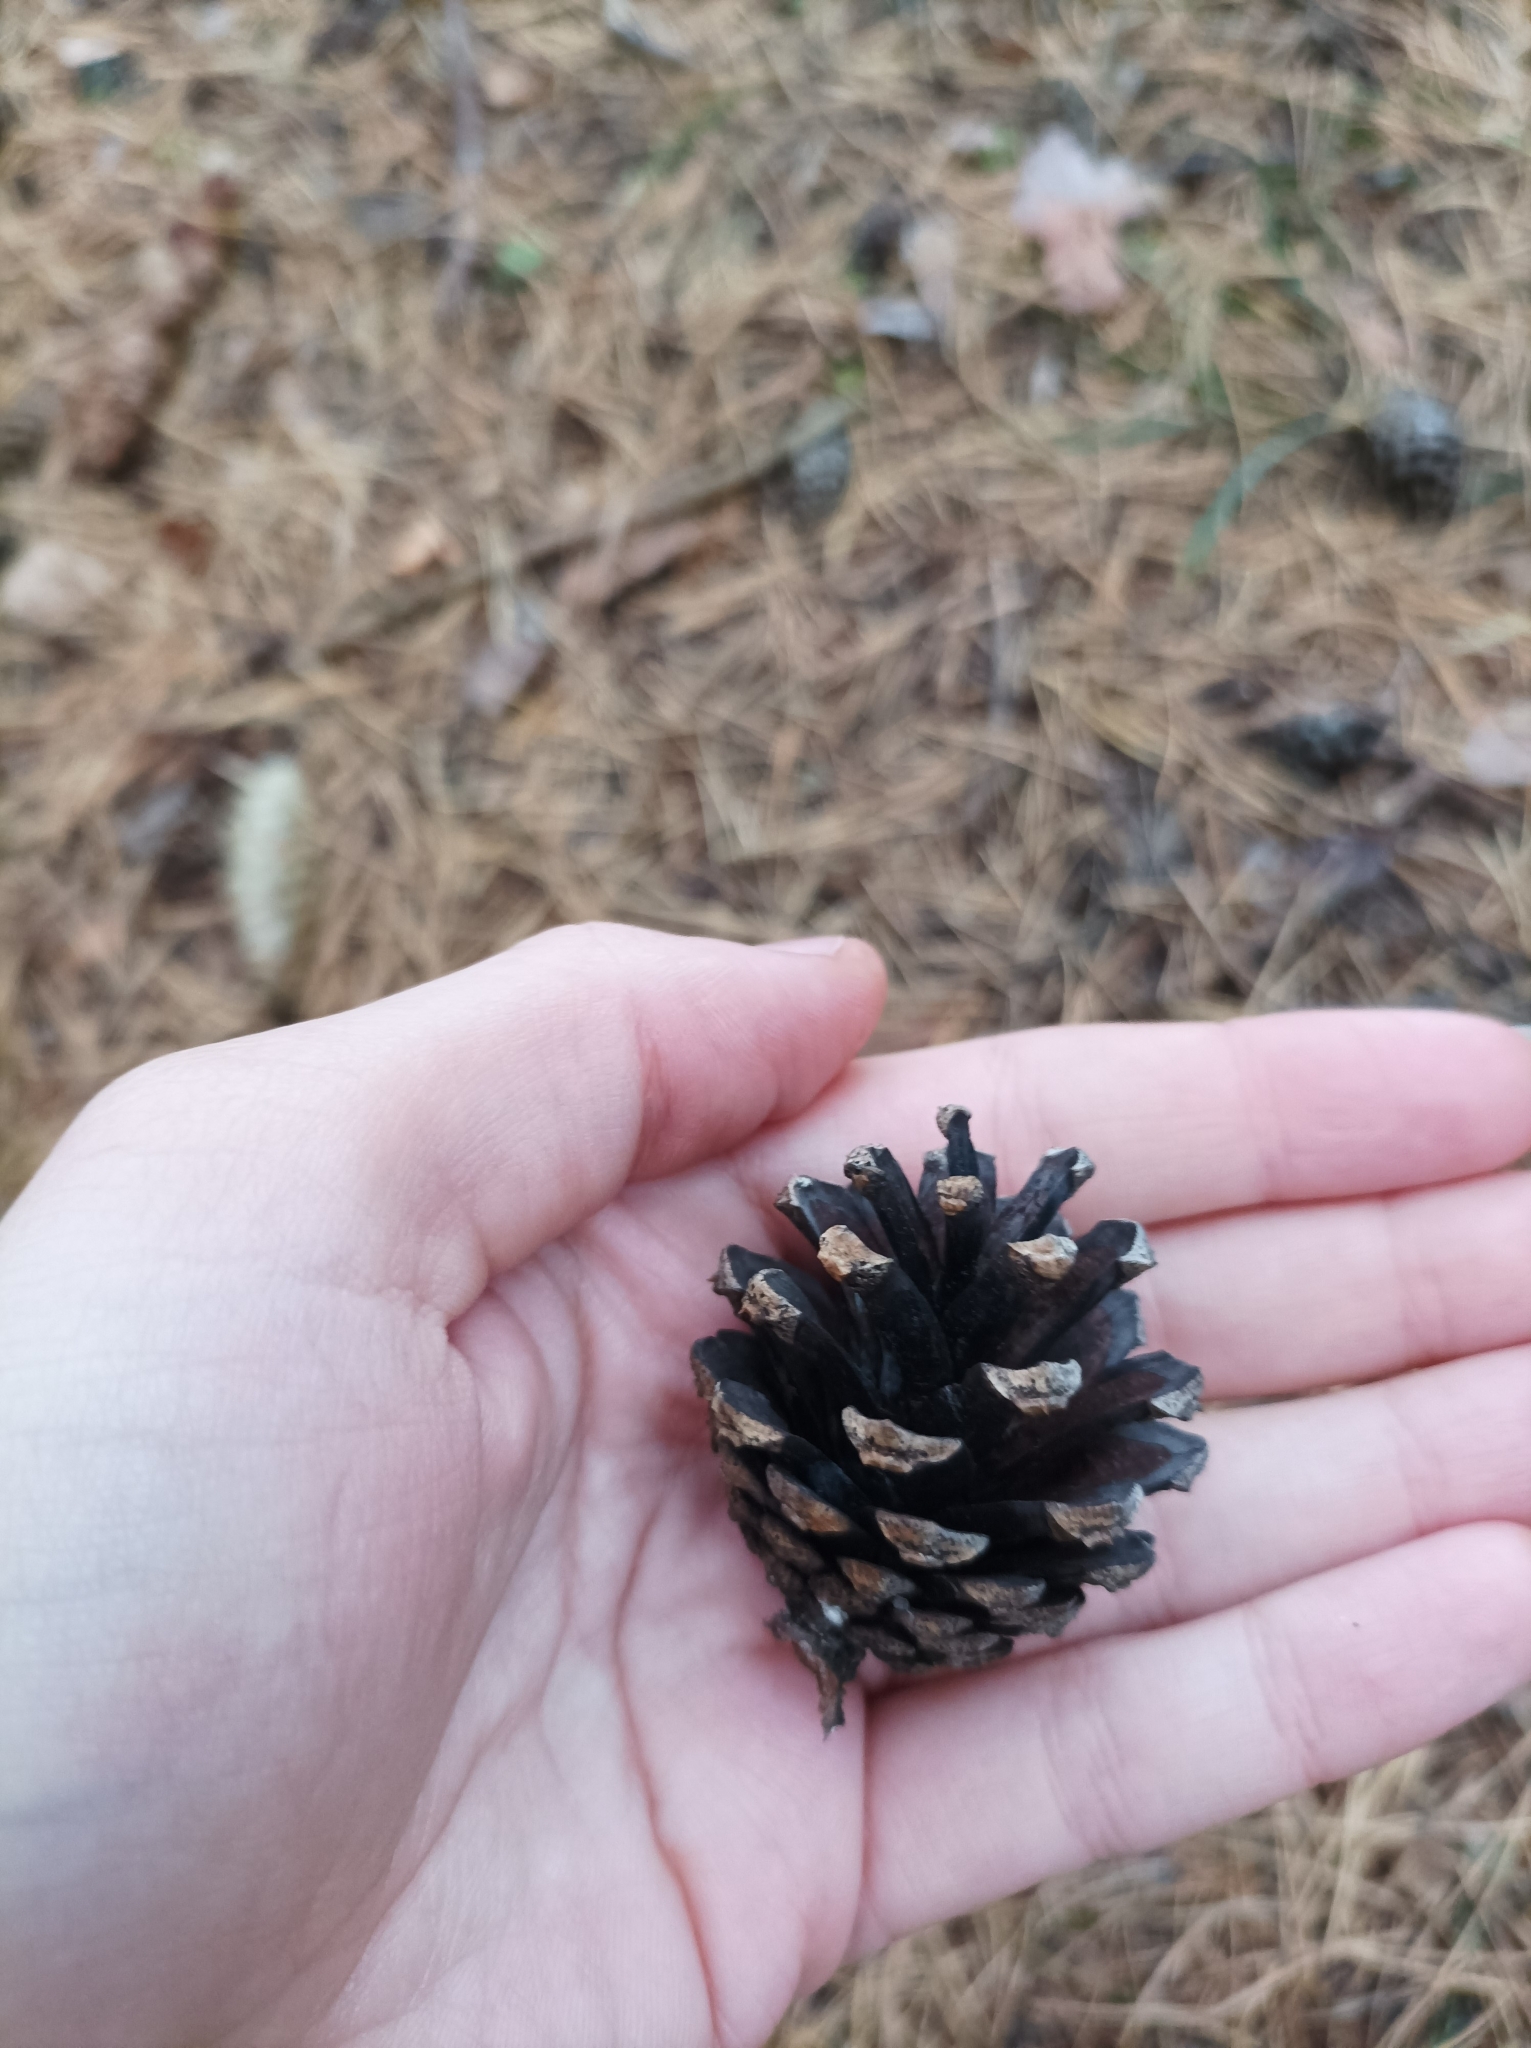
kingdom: Plantae
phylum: Tracheophyta
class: Pinopsida
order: Pinales
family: Pinaceae
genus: Pinus
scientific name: Pinus sylvestris
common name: Scots pine
